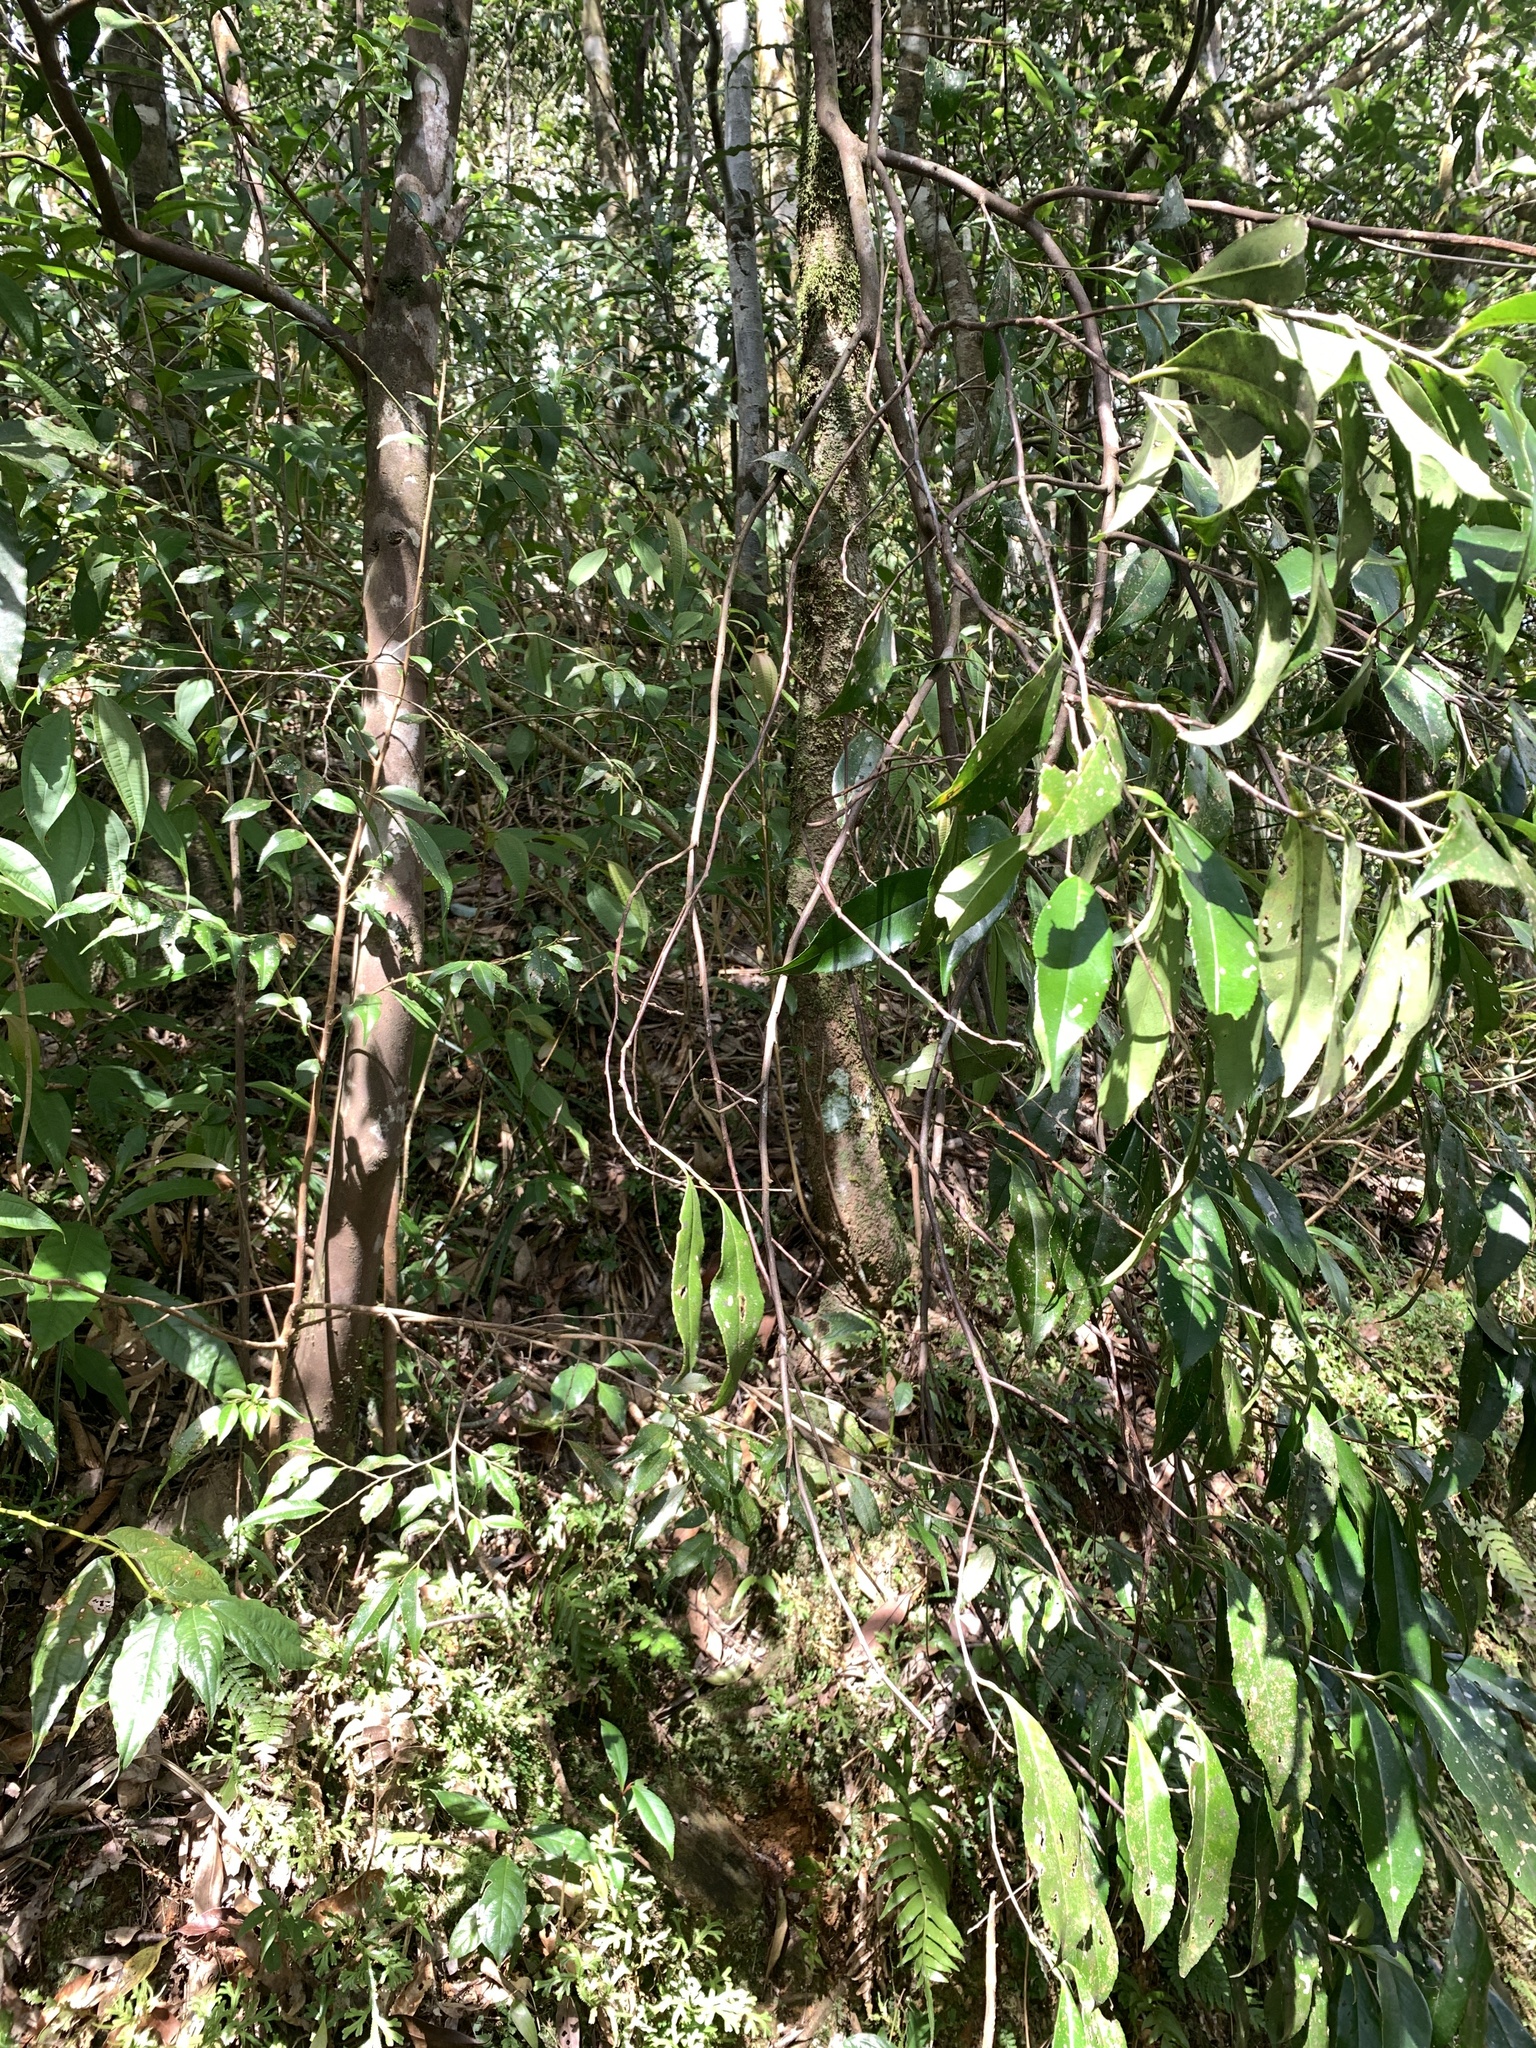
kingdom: Plantae
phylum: Tracheophyta
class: Magnoliopsida
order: Ericales
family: Theaceae
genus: Pyrenaria
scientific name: Pyrenaria microcarpa
